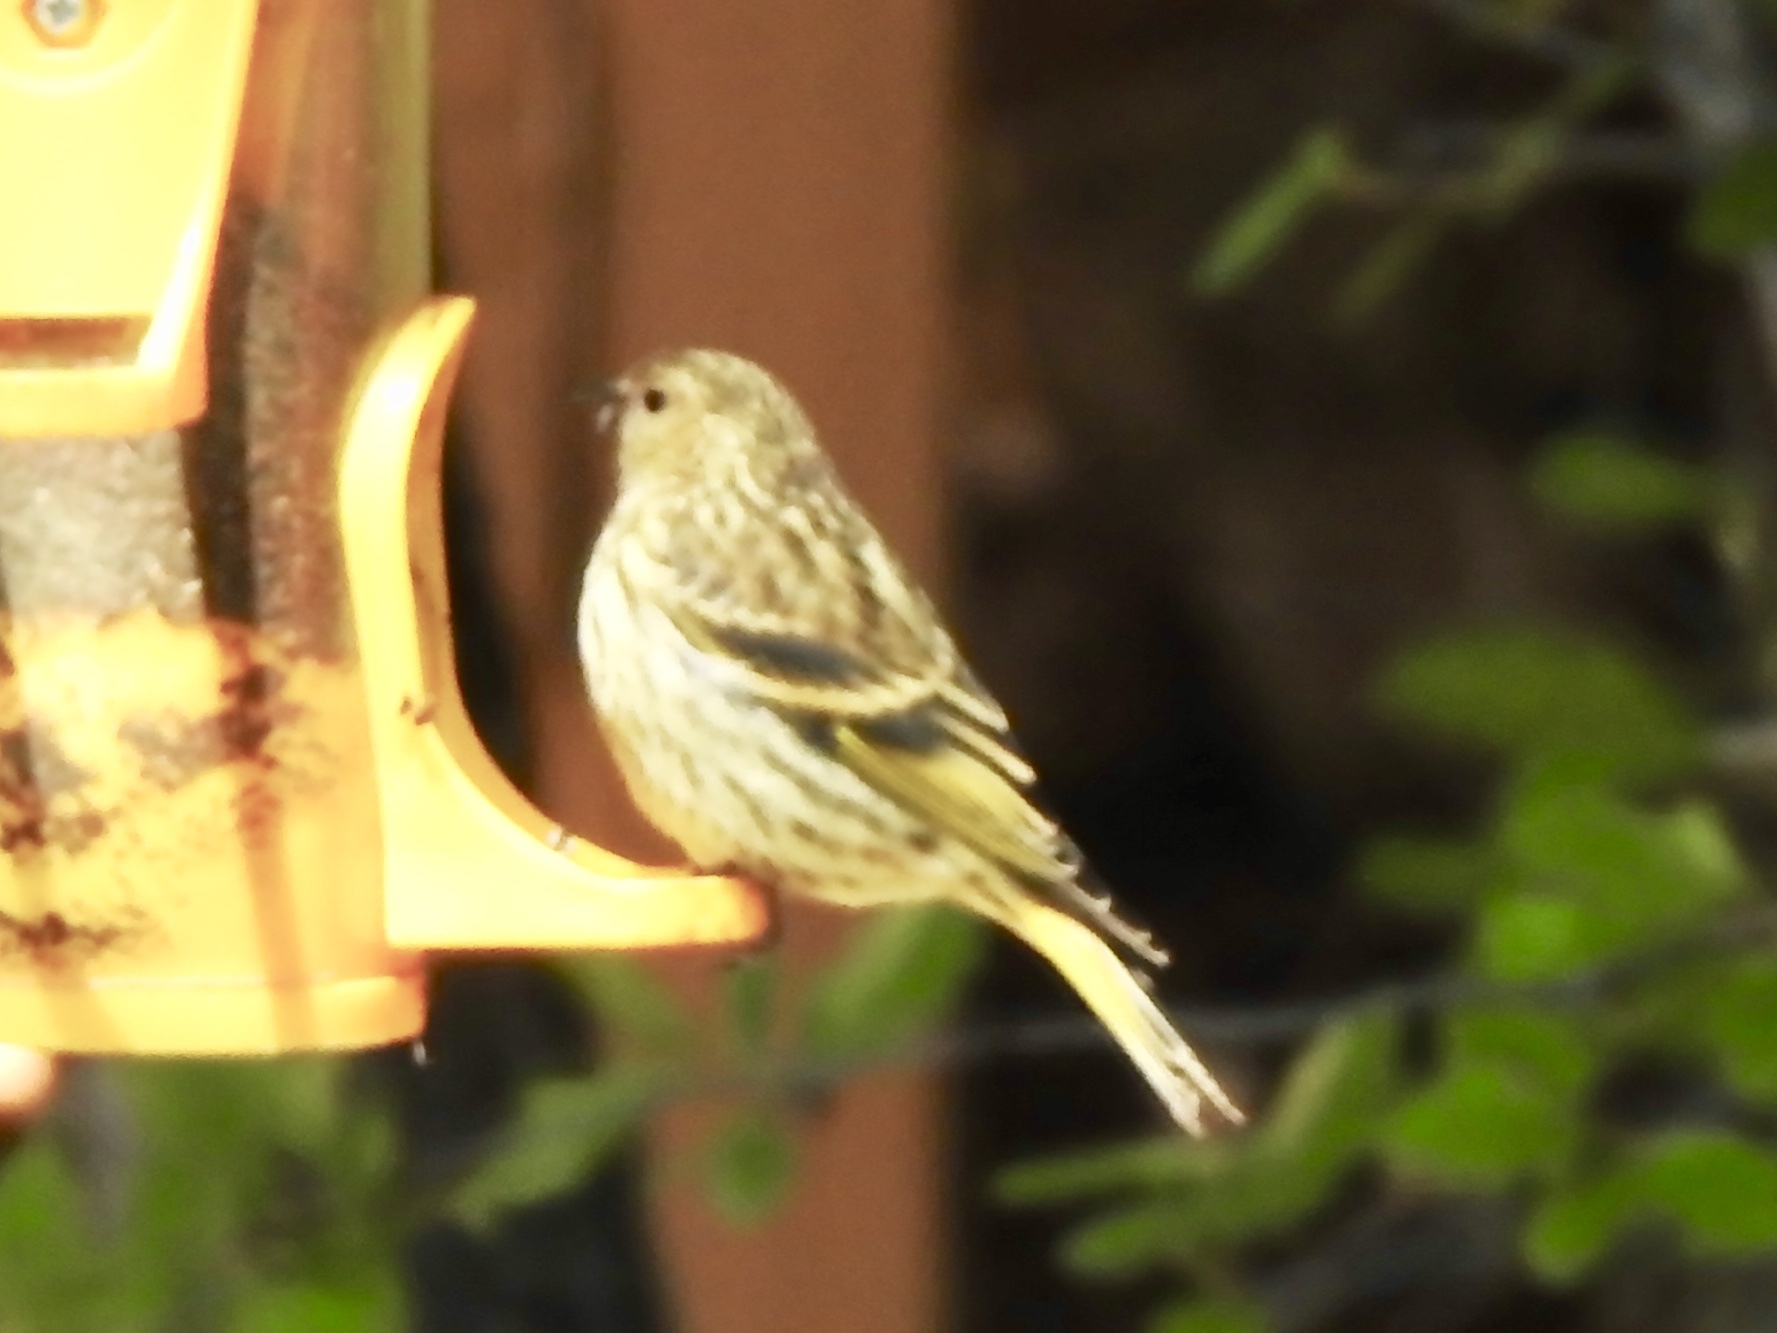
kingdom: Animalia
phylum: Chordata
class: Aves
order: Passeriformes
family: Fringillidae
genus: Spinus
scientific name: Spinus pinus
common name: Pine siskin
